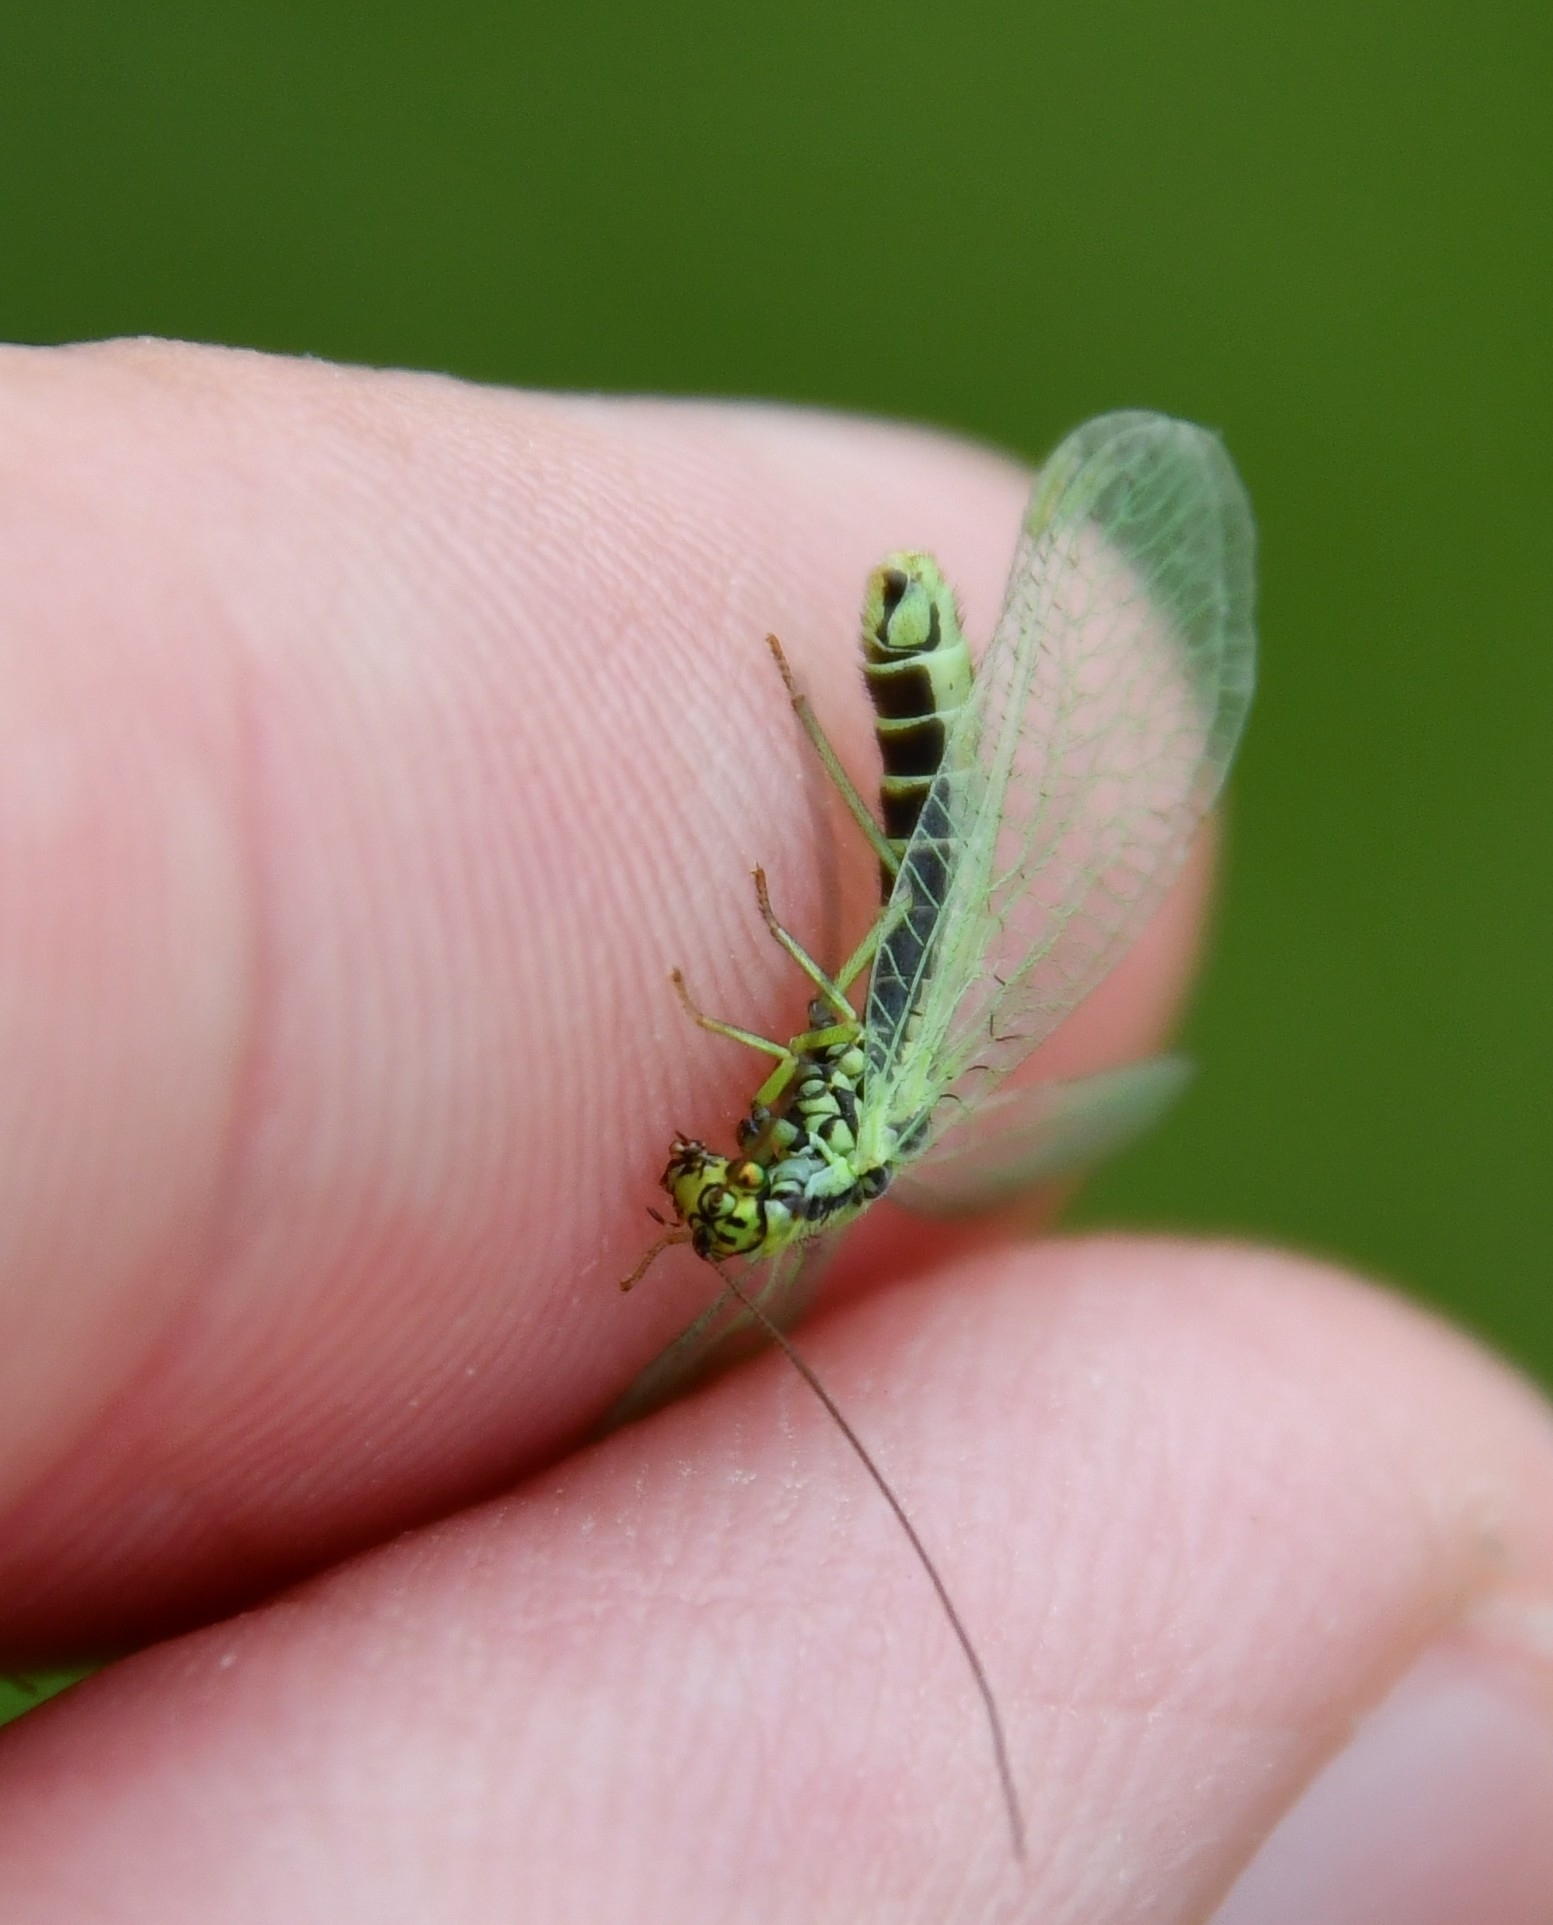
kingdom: Animalia
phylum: Arthropoda
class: Insecta
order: Neuroptera
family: Chrysopidae
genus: Chrysopa
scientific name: Chrysopa walkeri
